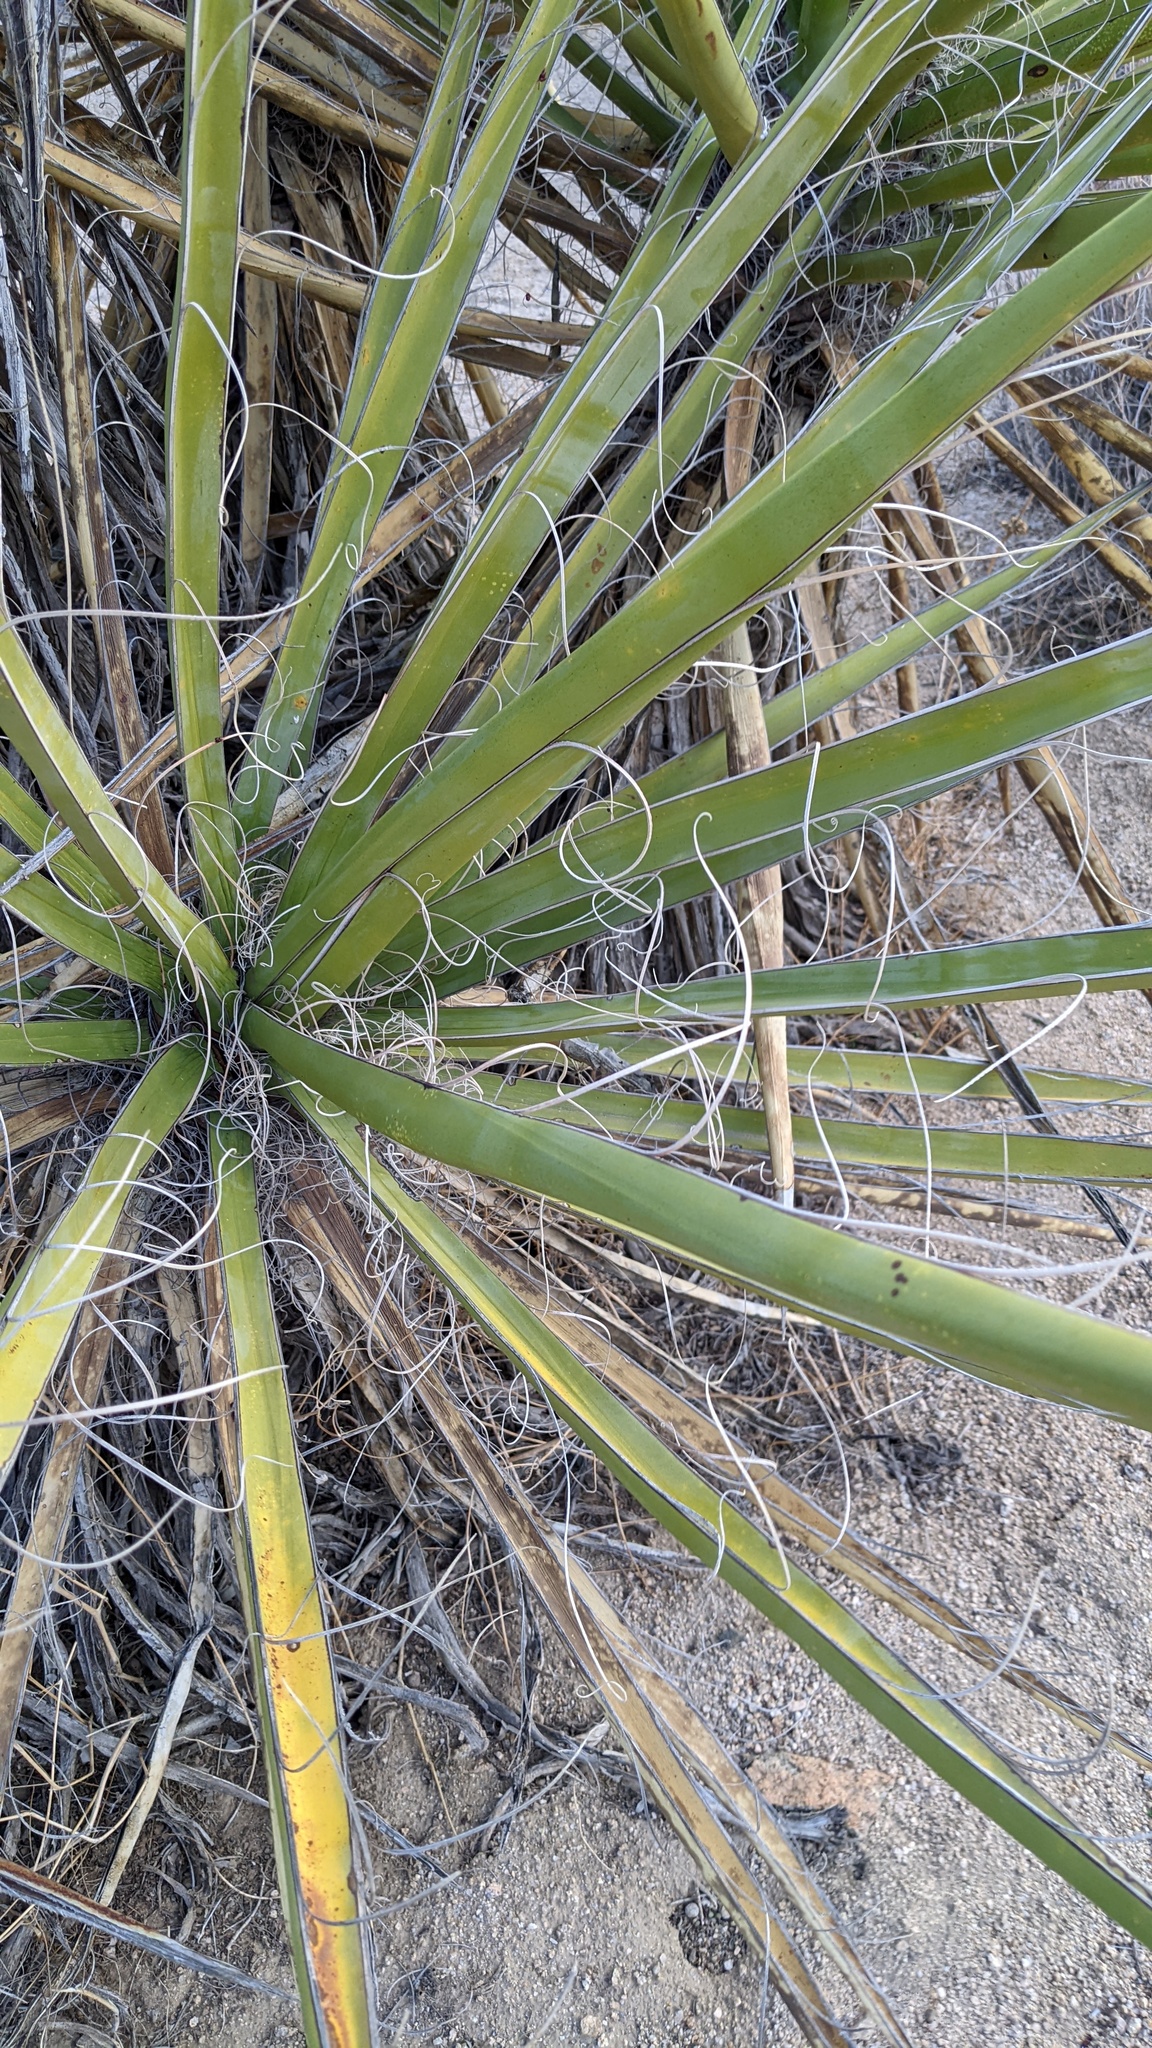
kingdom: Plantae
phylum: Tracheophyta
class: Liliopsida
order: Asparagales
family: Asparagaceae
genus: Yucca
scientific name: Yucca schidigera
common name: Mojave yucca
